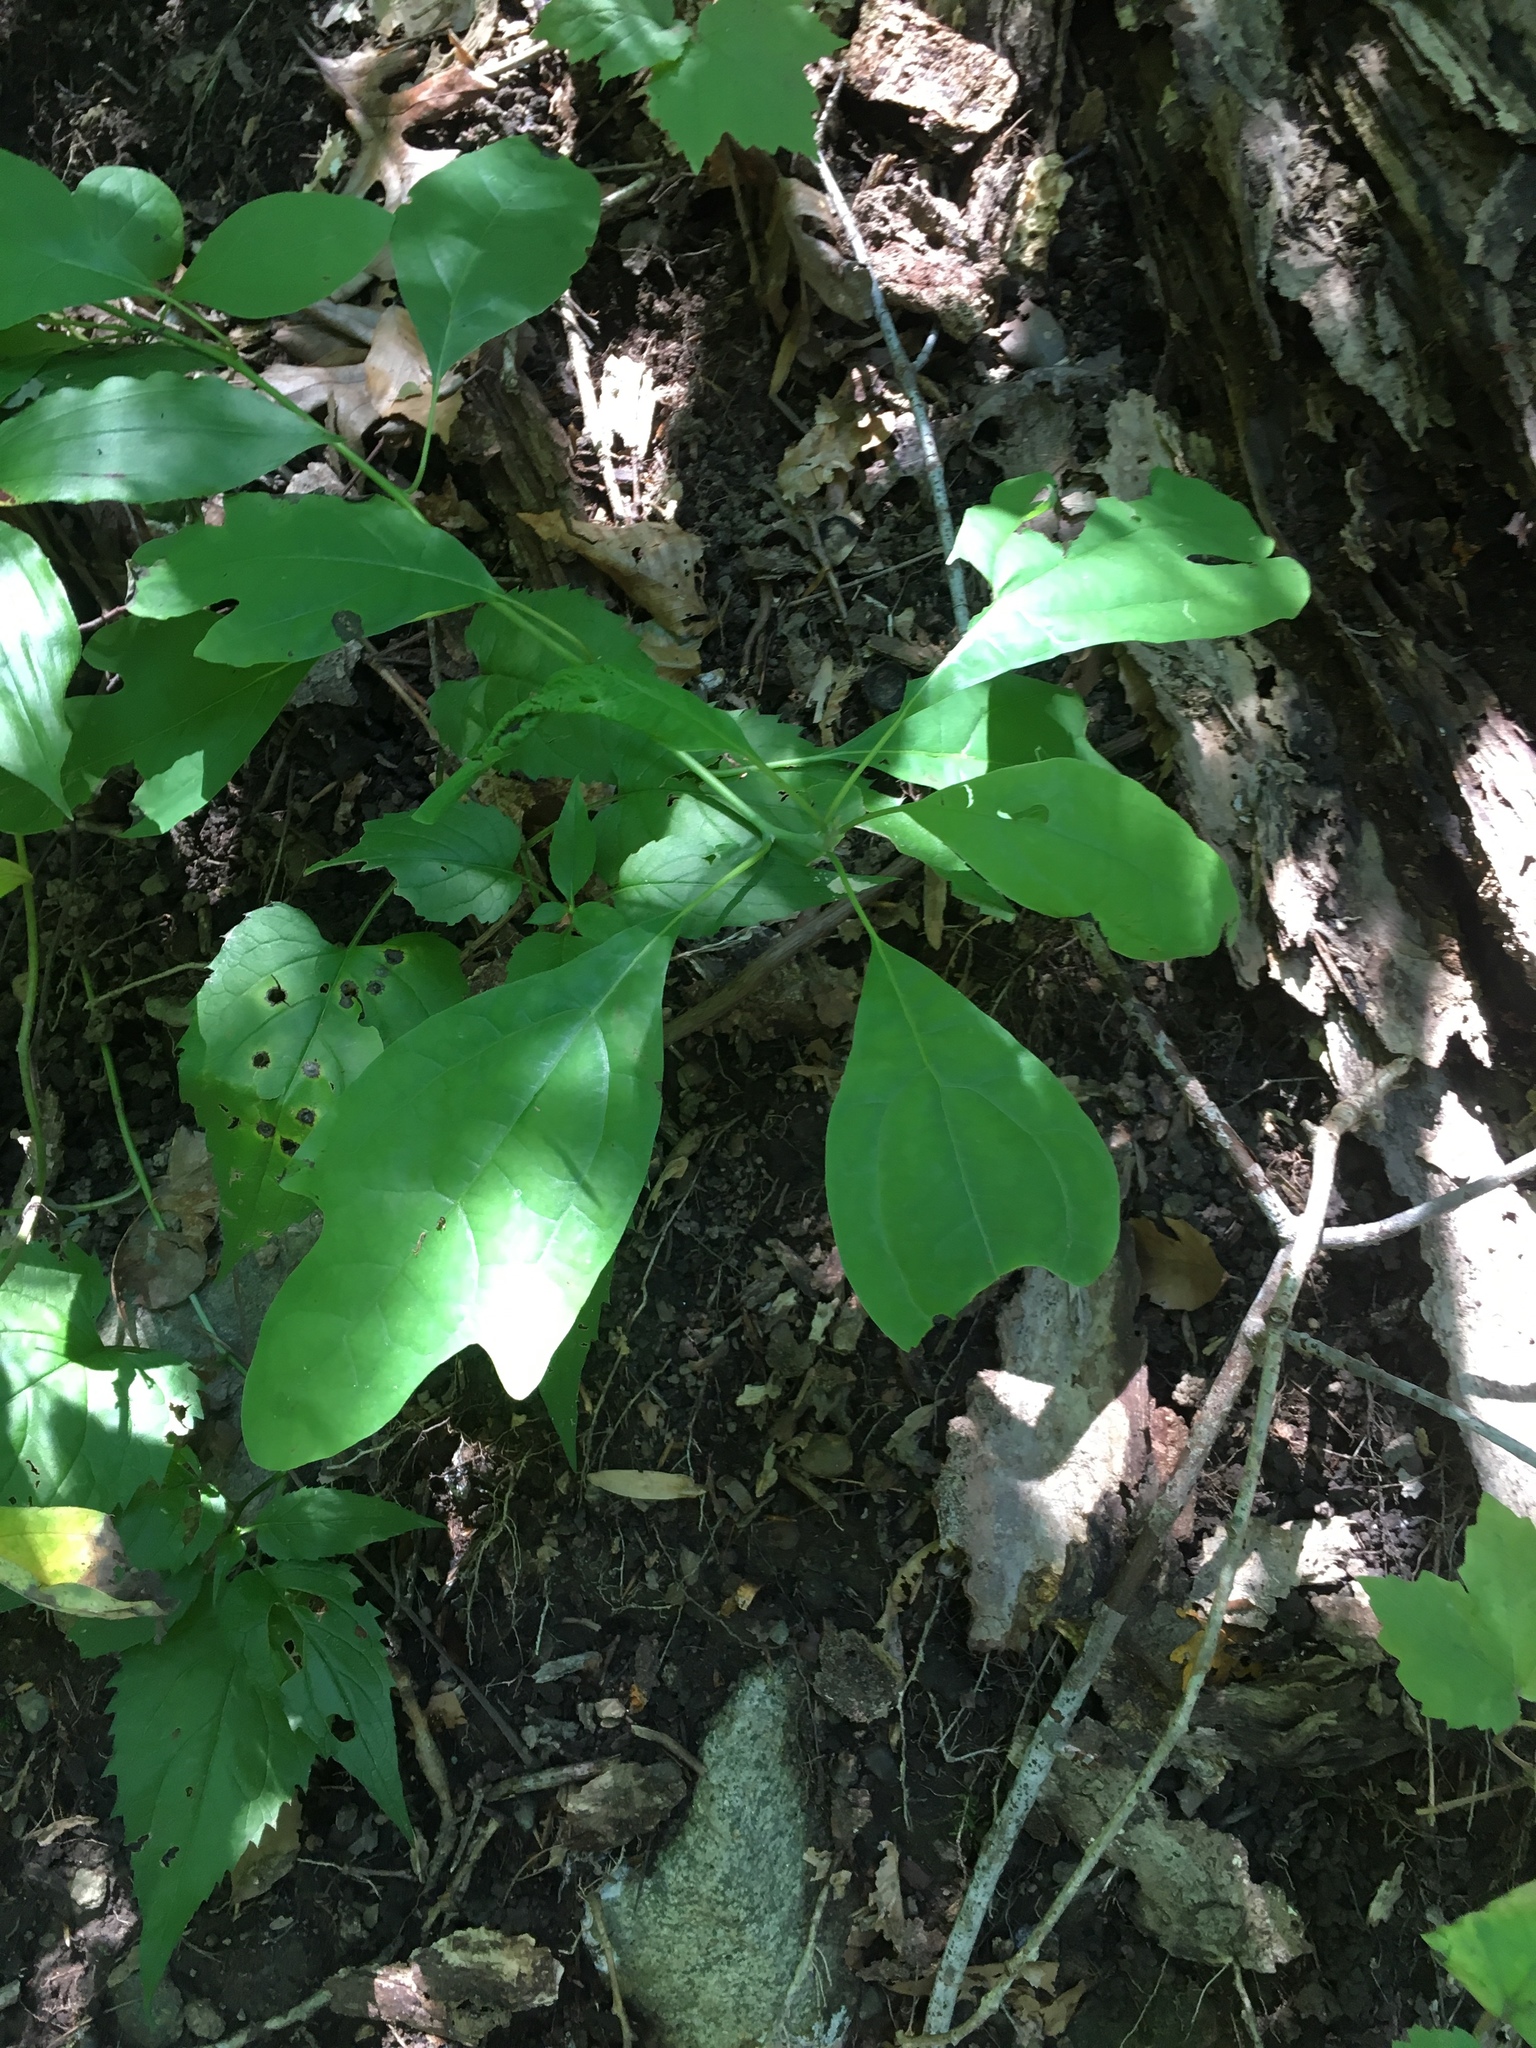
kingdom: Plantae
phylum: Tracheophyta
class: Magnoliopsida
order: Laurales
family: Lauraceae
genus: Sassafras
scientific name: Sassafras albidum
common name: Sassafras
